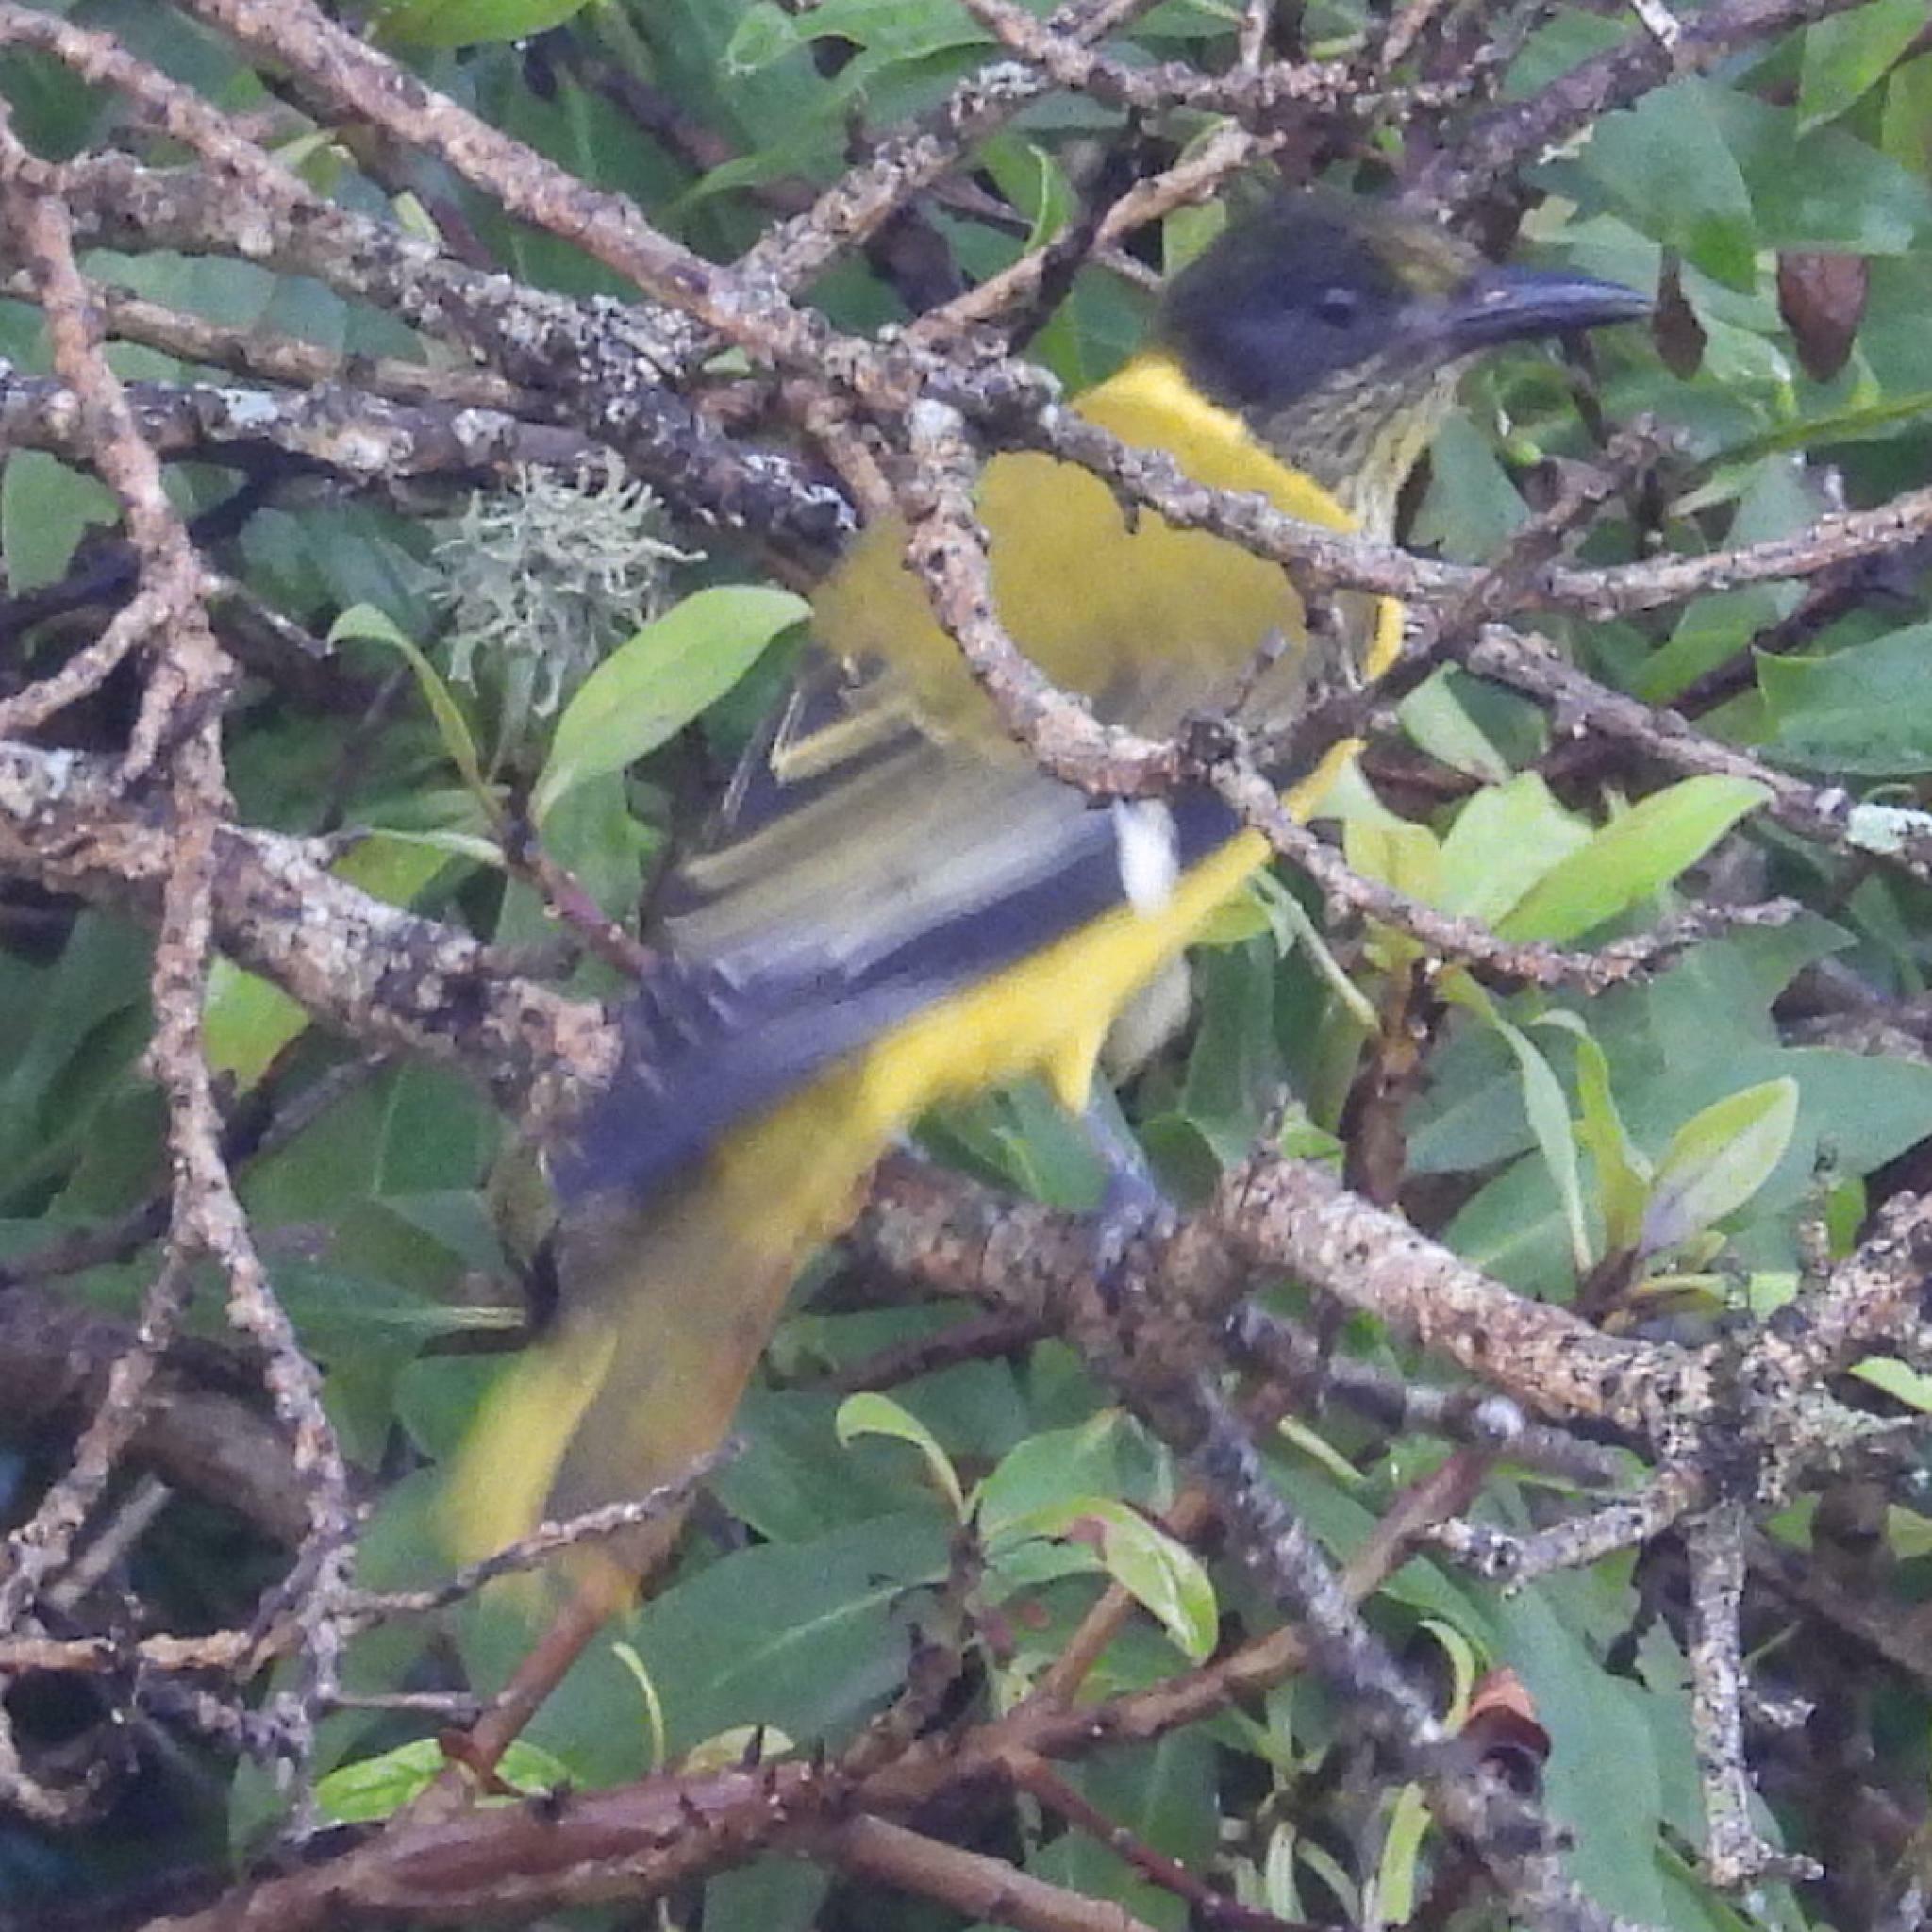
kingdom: Animalia
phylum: Chordata
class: Aves
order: Passeriformes
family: Oriolidae
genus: Oriolus
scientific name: Oriolus larvatus
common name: Black-headed oriole
